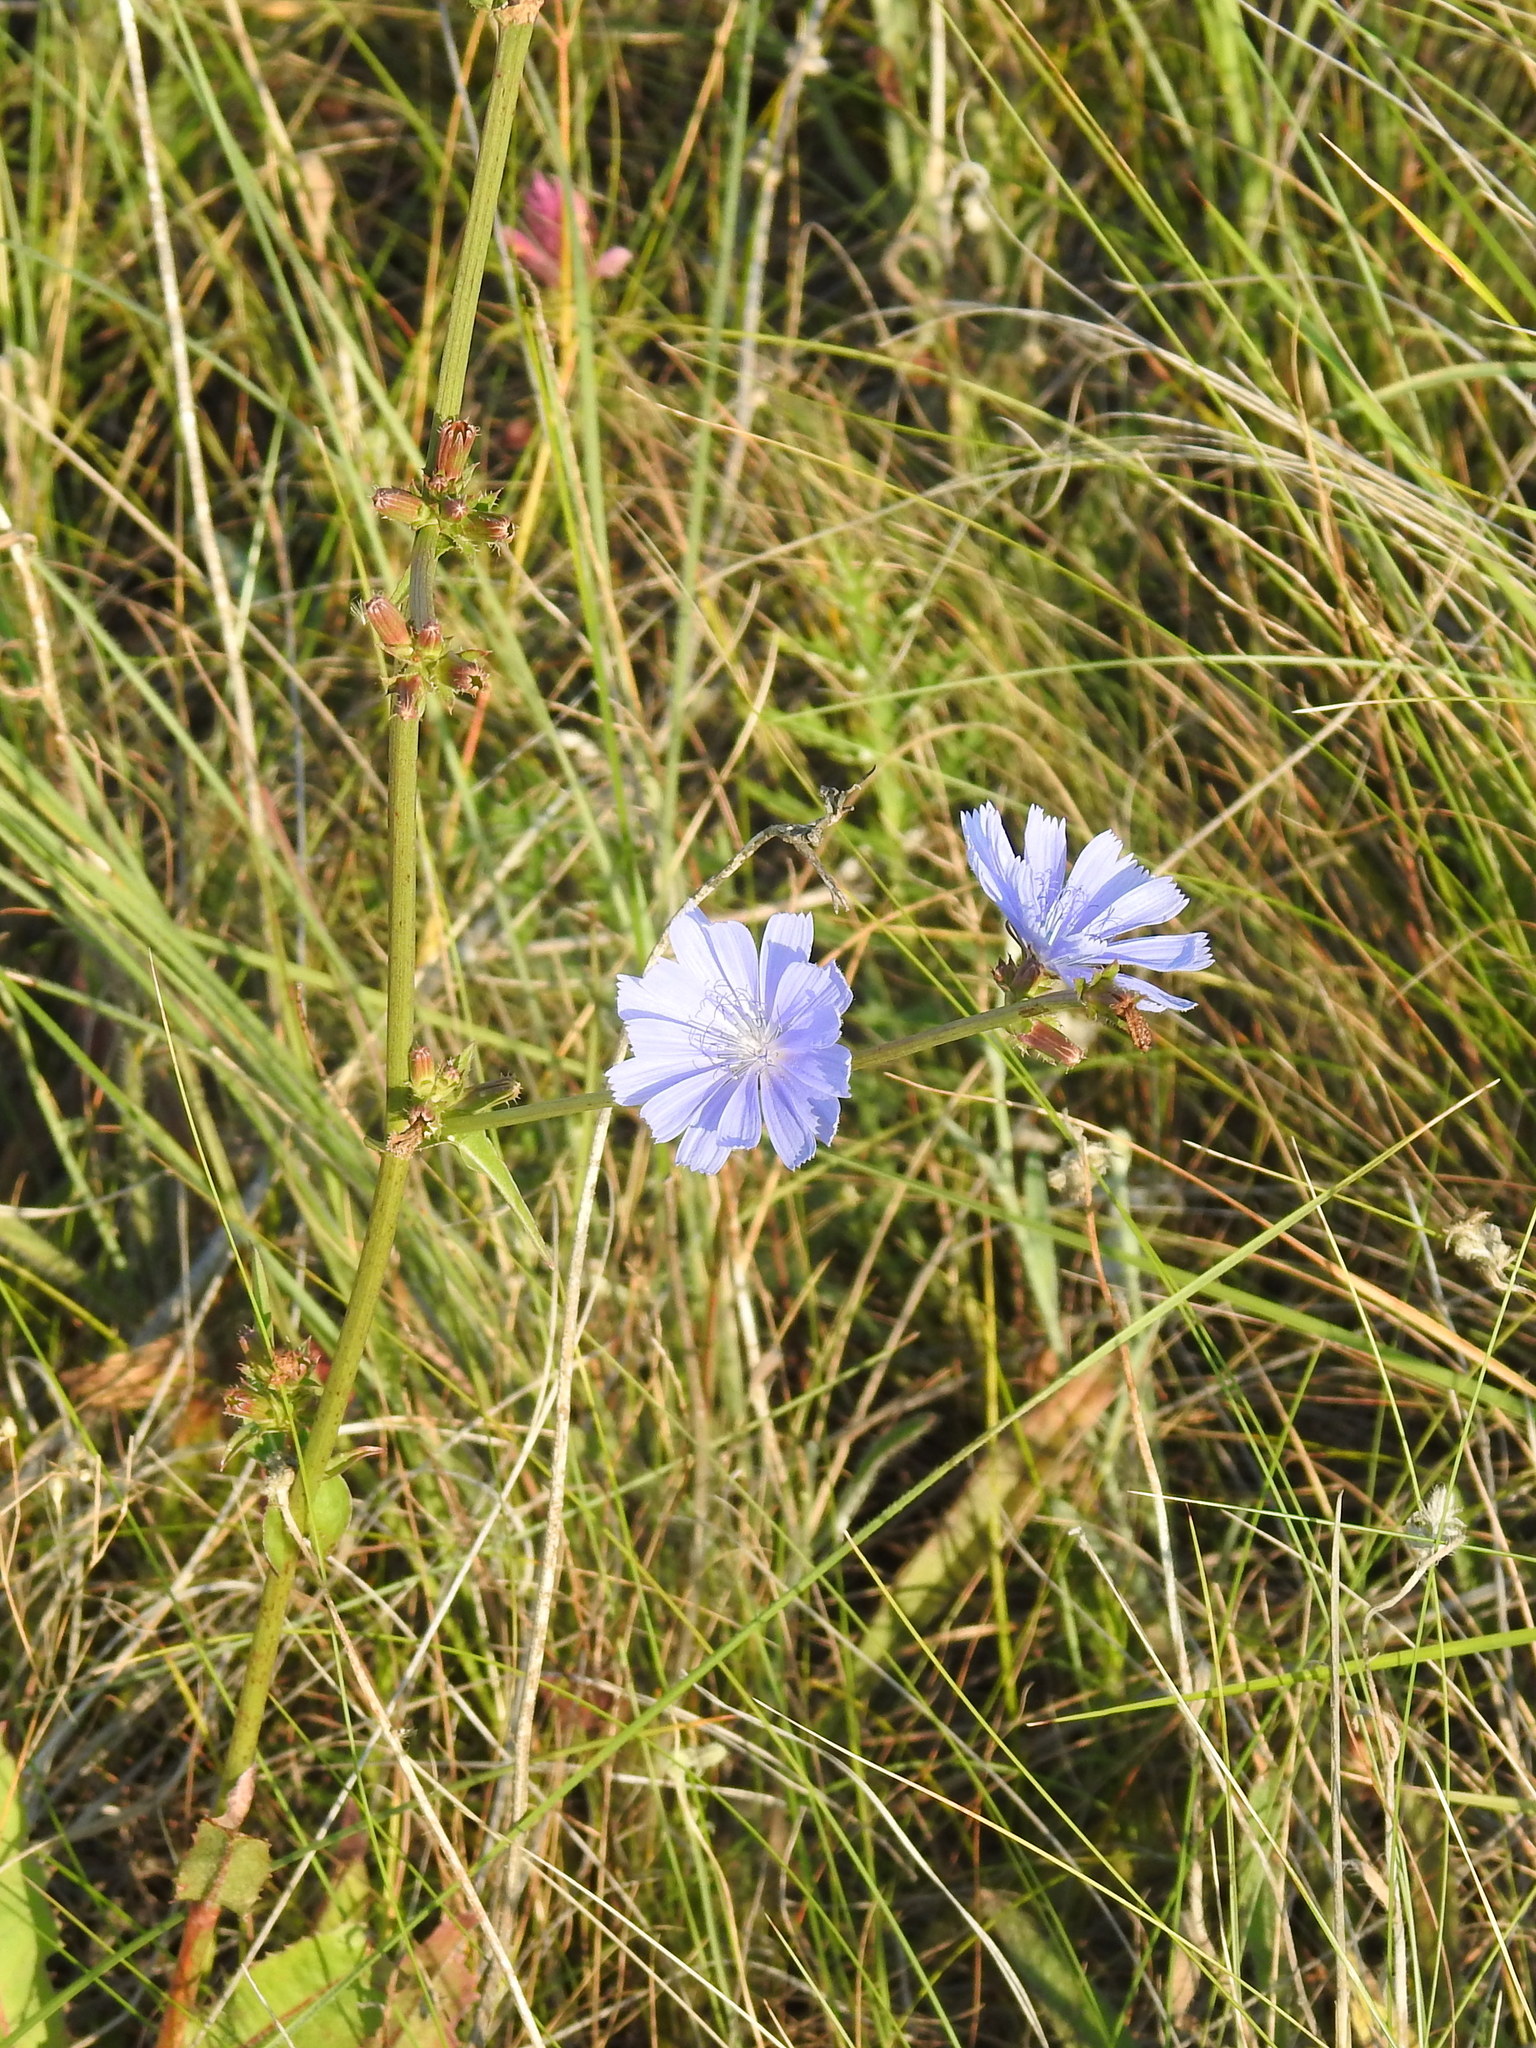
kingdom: Plantae
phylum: Tracheophyta
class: Magnoliopsida
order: Asterales
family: Asteraceae
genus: Cichorium
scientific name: Cichorium intybus
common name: Chicory
